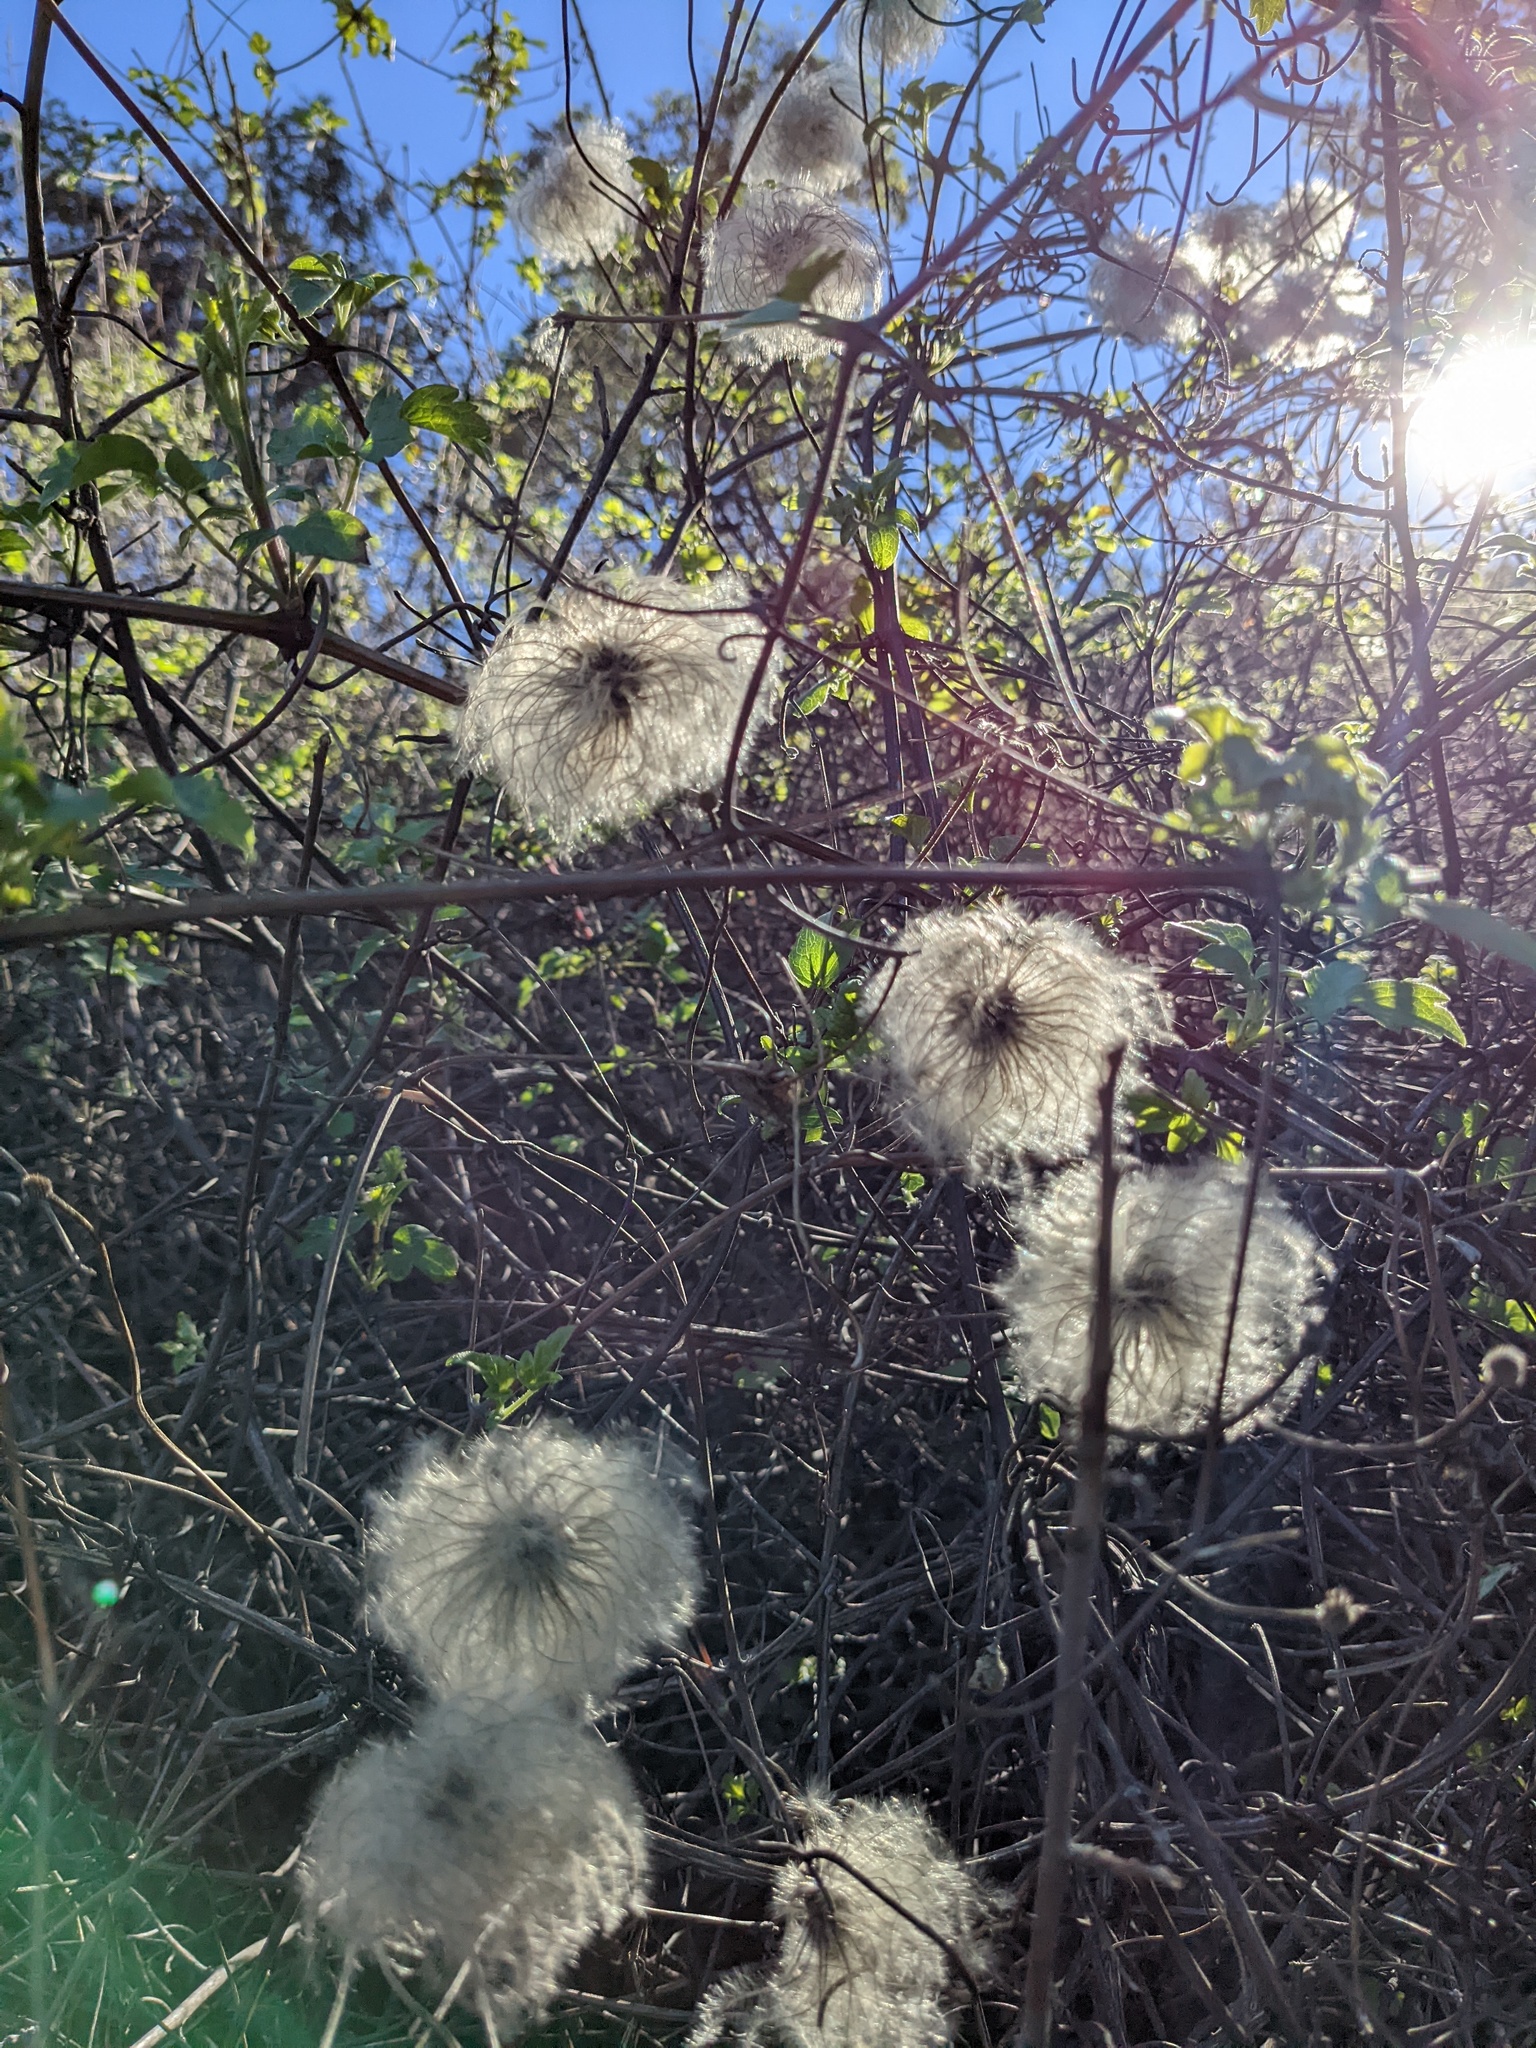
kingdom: Plantae
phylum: Tracheophyta
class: Magnoliopsida
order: Ranunculales
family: Ranunculaceae
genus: Clematis
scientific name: Clematis lasiantha
